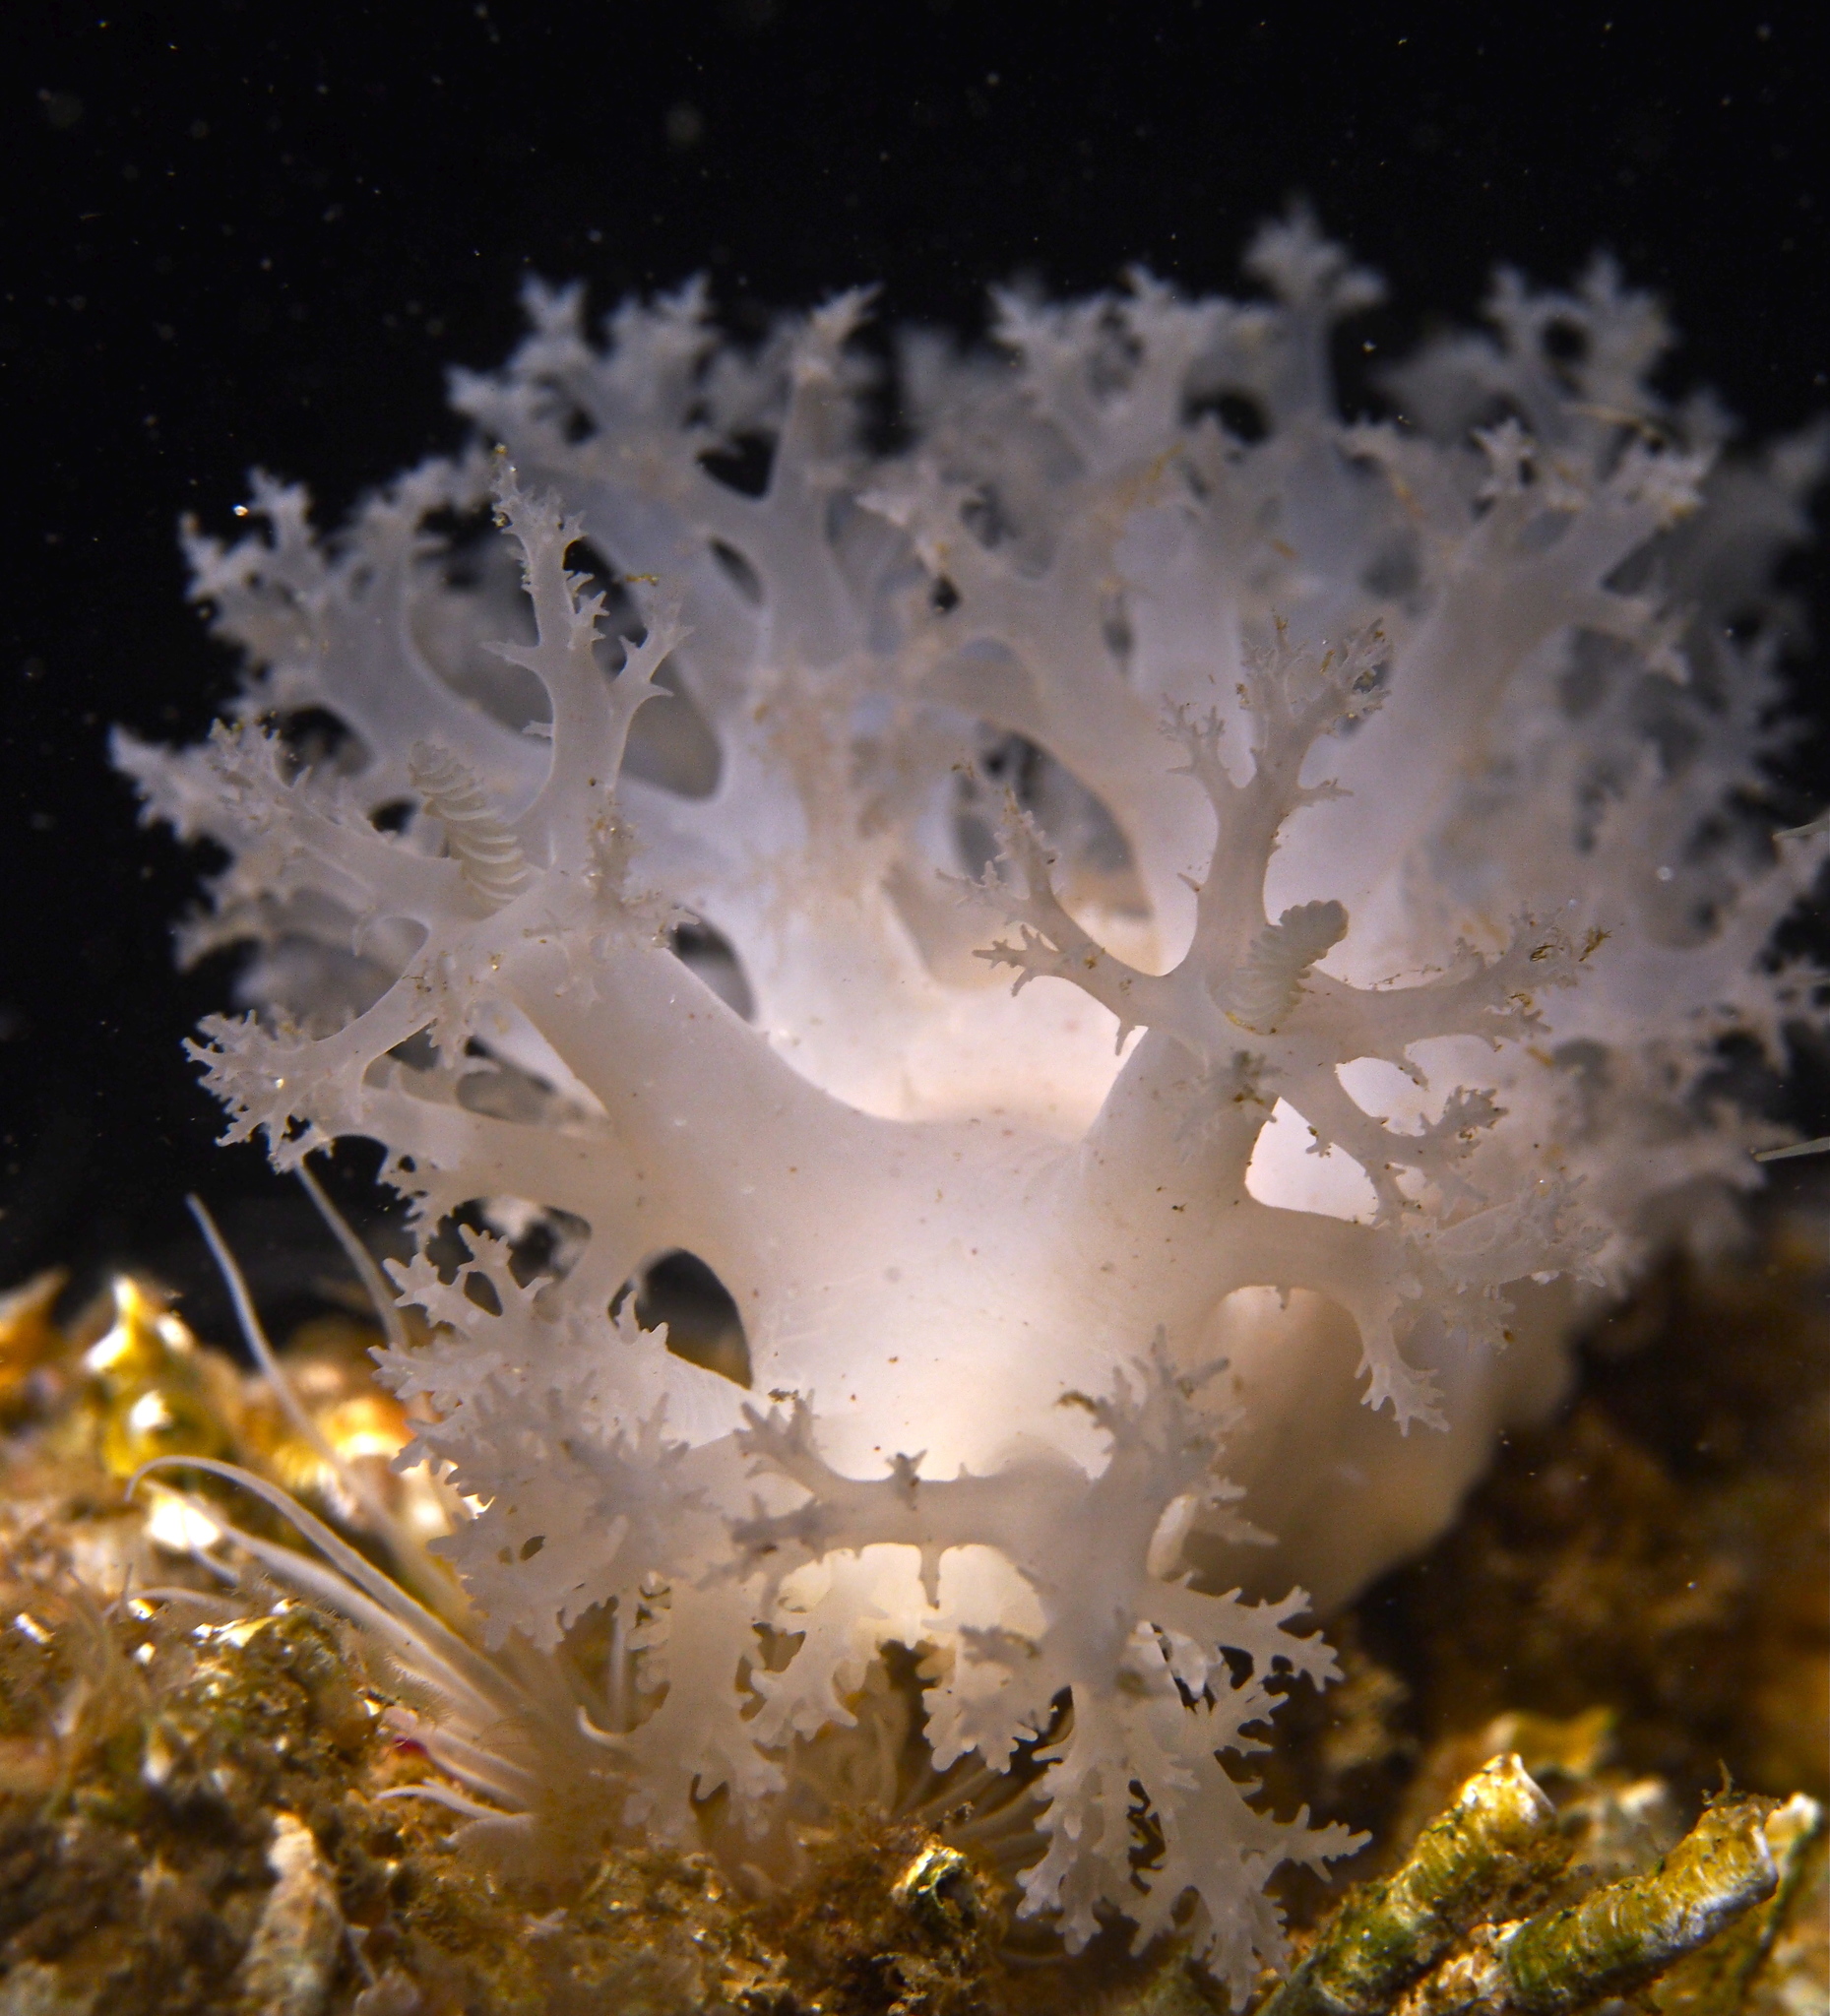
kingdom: Animalia
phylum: Mollusca
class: Gastropoda
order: Nudibranchia
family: Dendronotidae
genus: Dendronotus
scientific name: Dendronotus lacteus
